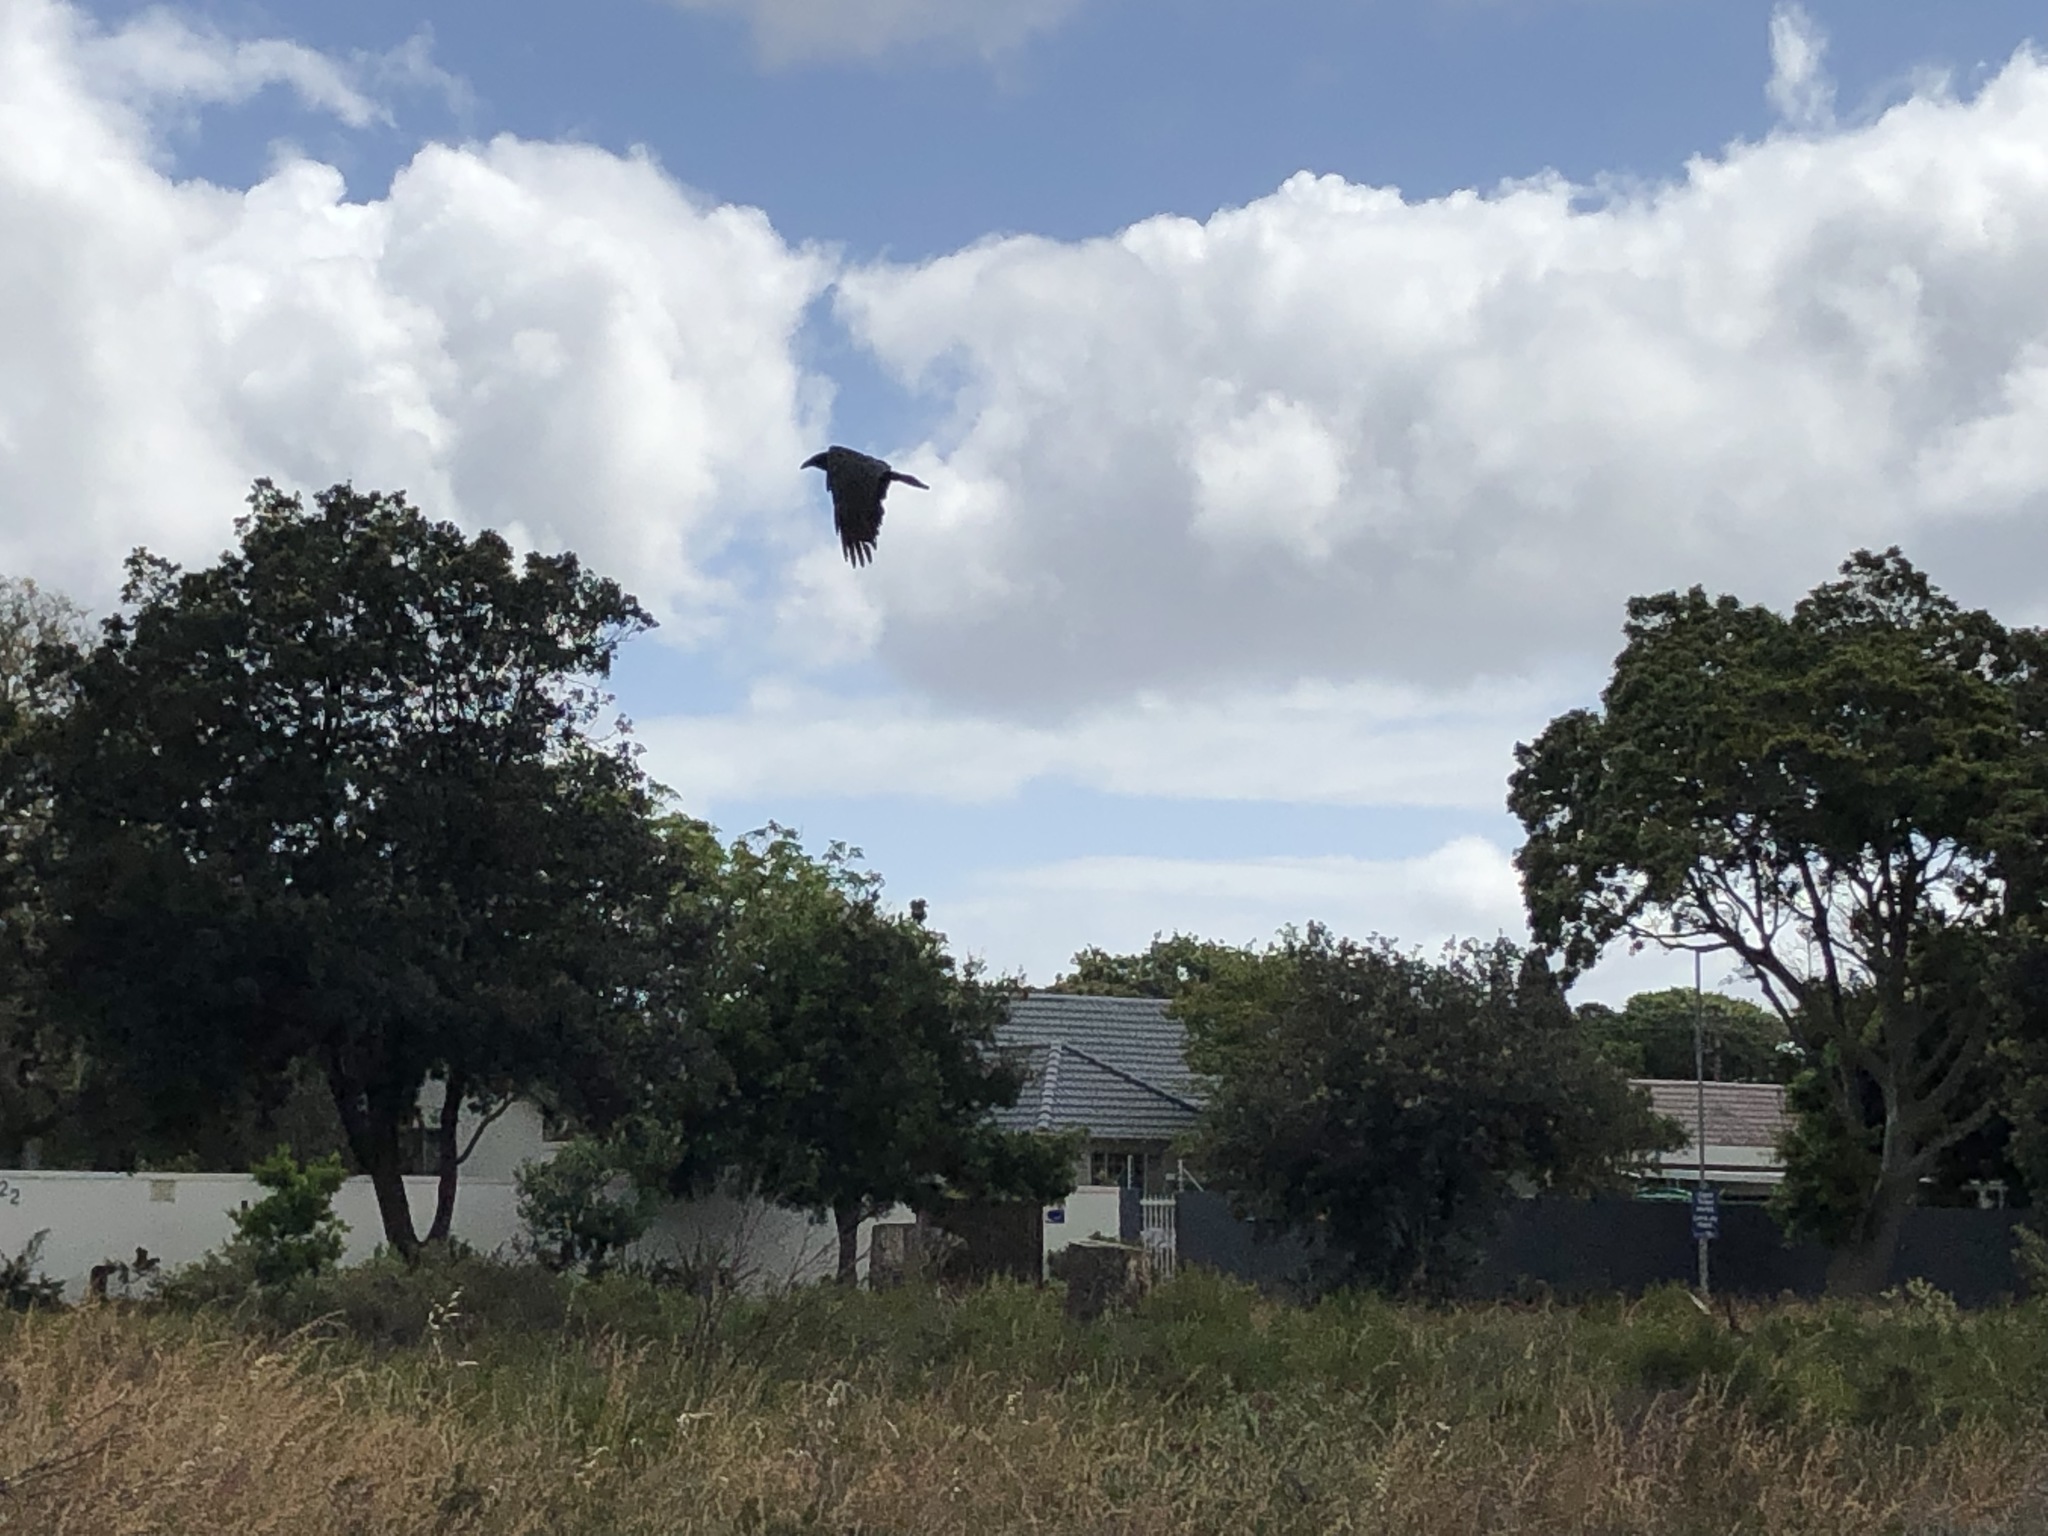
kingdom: Animalia
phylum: Chordata
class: Aves
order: Passeriformes
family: Corvidae
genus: Corvus
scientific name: Corvus albus
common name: Pied crow
